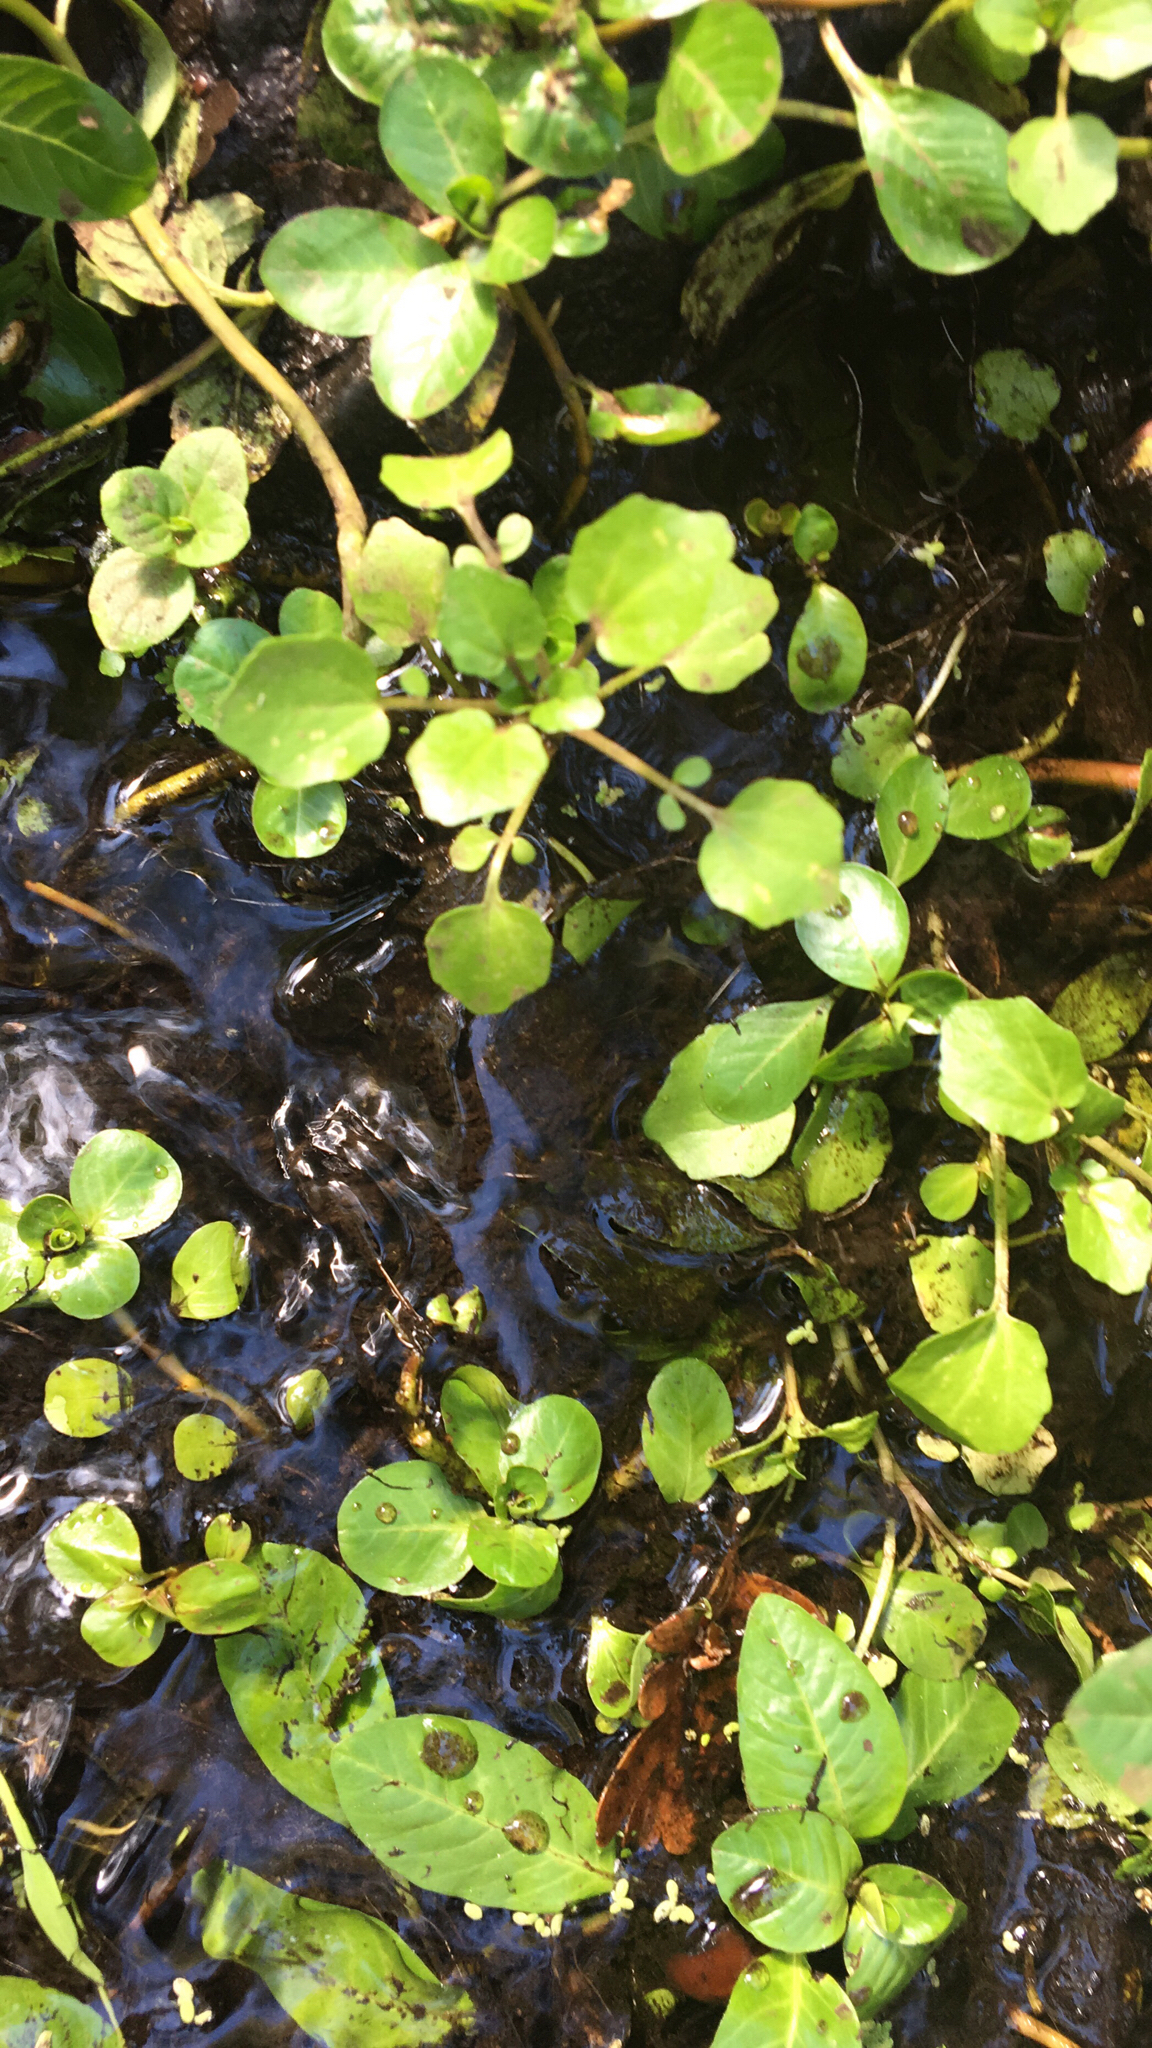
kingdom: Plantae
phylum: Tracheophyta
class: Magnoliopsida
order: Brassicales
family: Brassicaceae
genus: Nasturtium
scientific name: Nasturtium officinale
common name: Watercress
